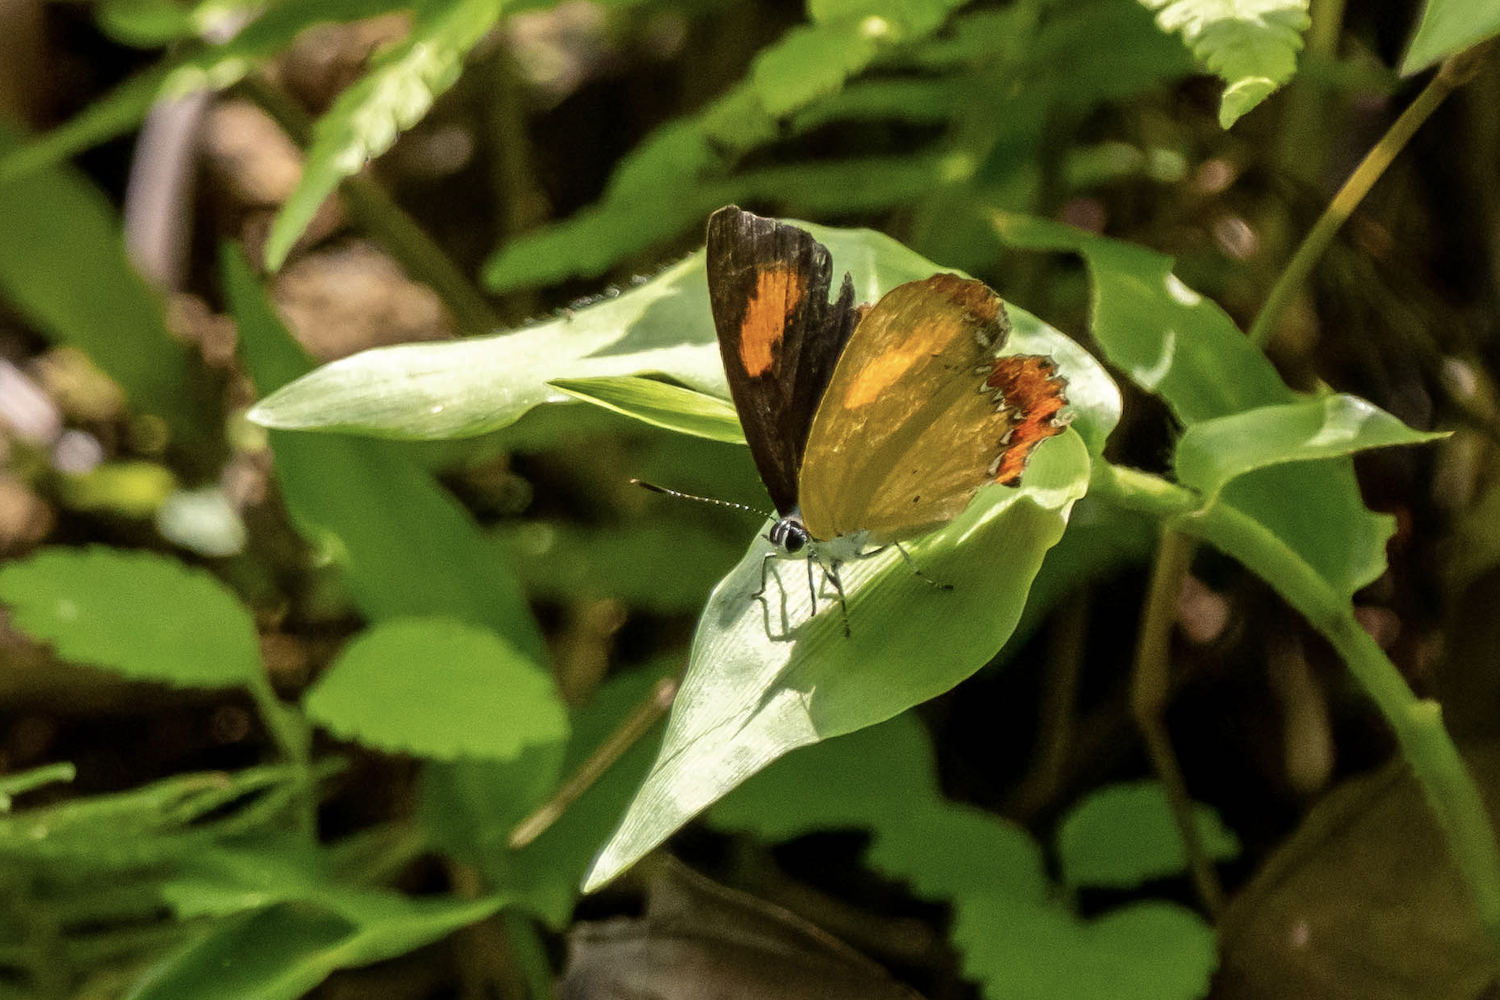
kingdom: Animalia
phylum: Arthropoda
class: Insecta
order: Lepidoptera
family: Lycaenidae
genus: Heliophorus
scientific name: Heliophorus epicles
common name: Purple sapphire
